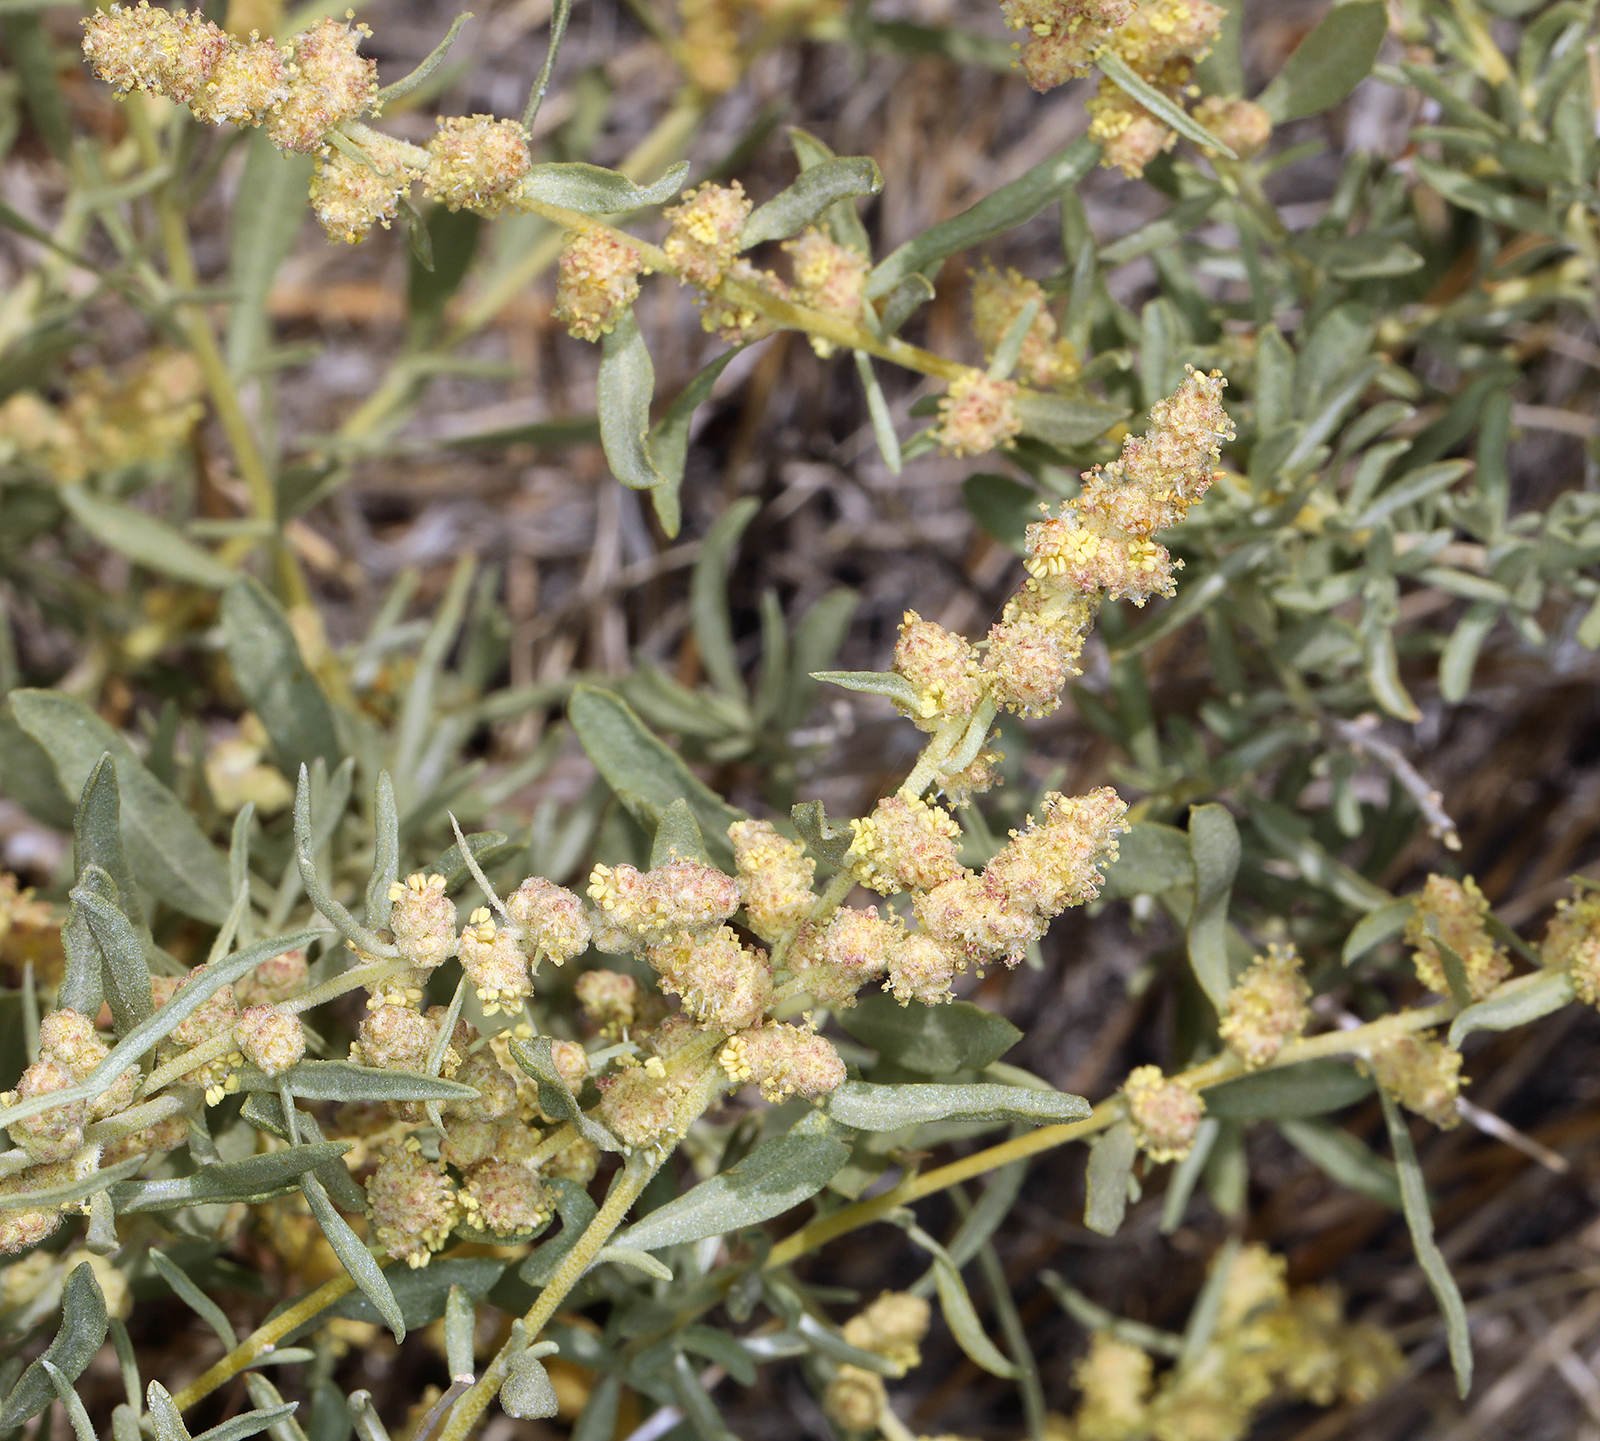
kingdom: Plantae
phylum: Tracheophyta
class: Magnoliopsida
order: Caryophyllales
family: Amaranthaceae
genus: Atriplex
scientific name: Atriplex canescens
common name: Four-wing saltbush
